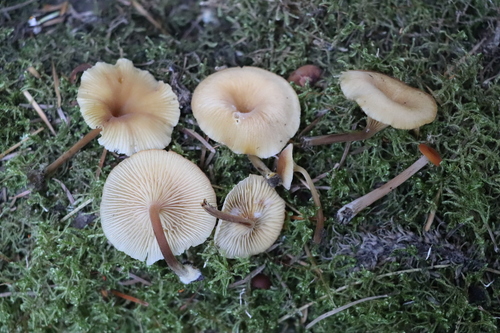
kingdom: Fungi
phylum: Basidiomycota
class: Agaricomycetes
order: Agaricales
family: Marasmiaceae
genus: Clitocybula
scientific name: Clitocybula
